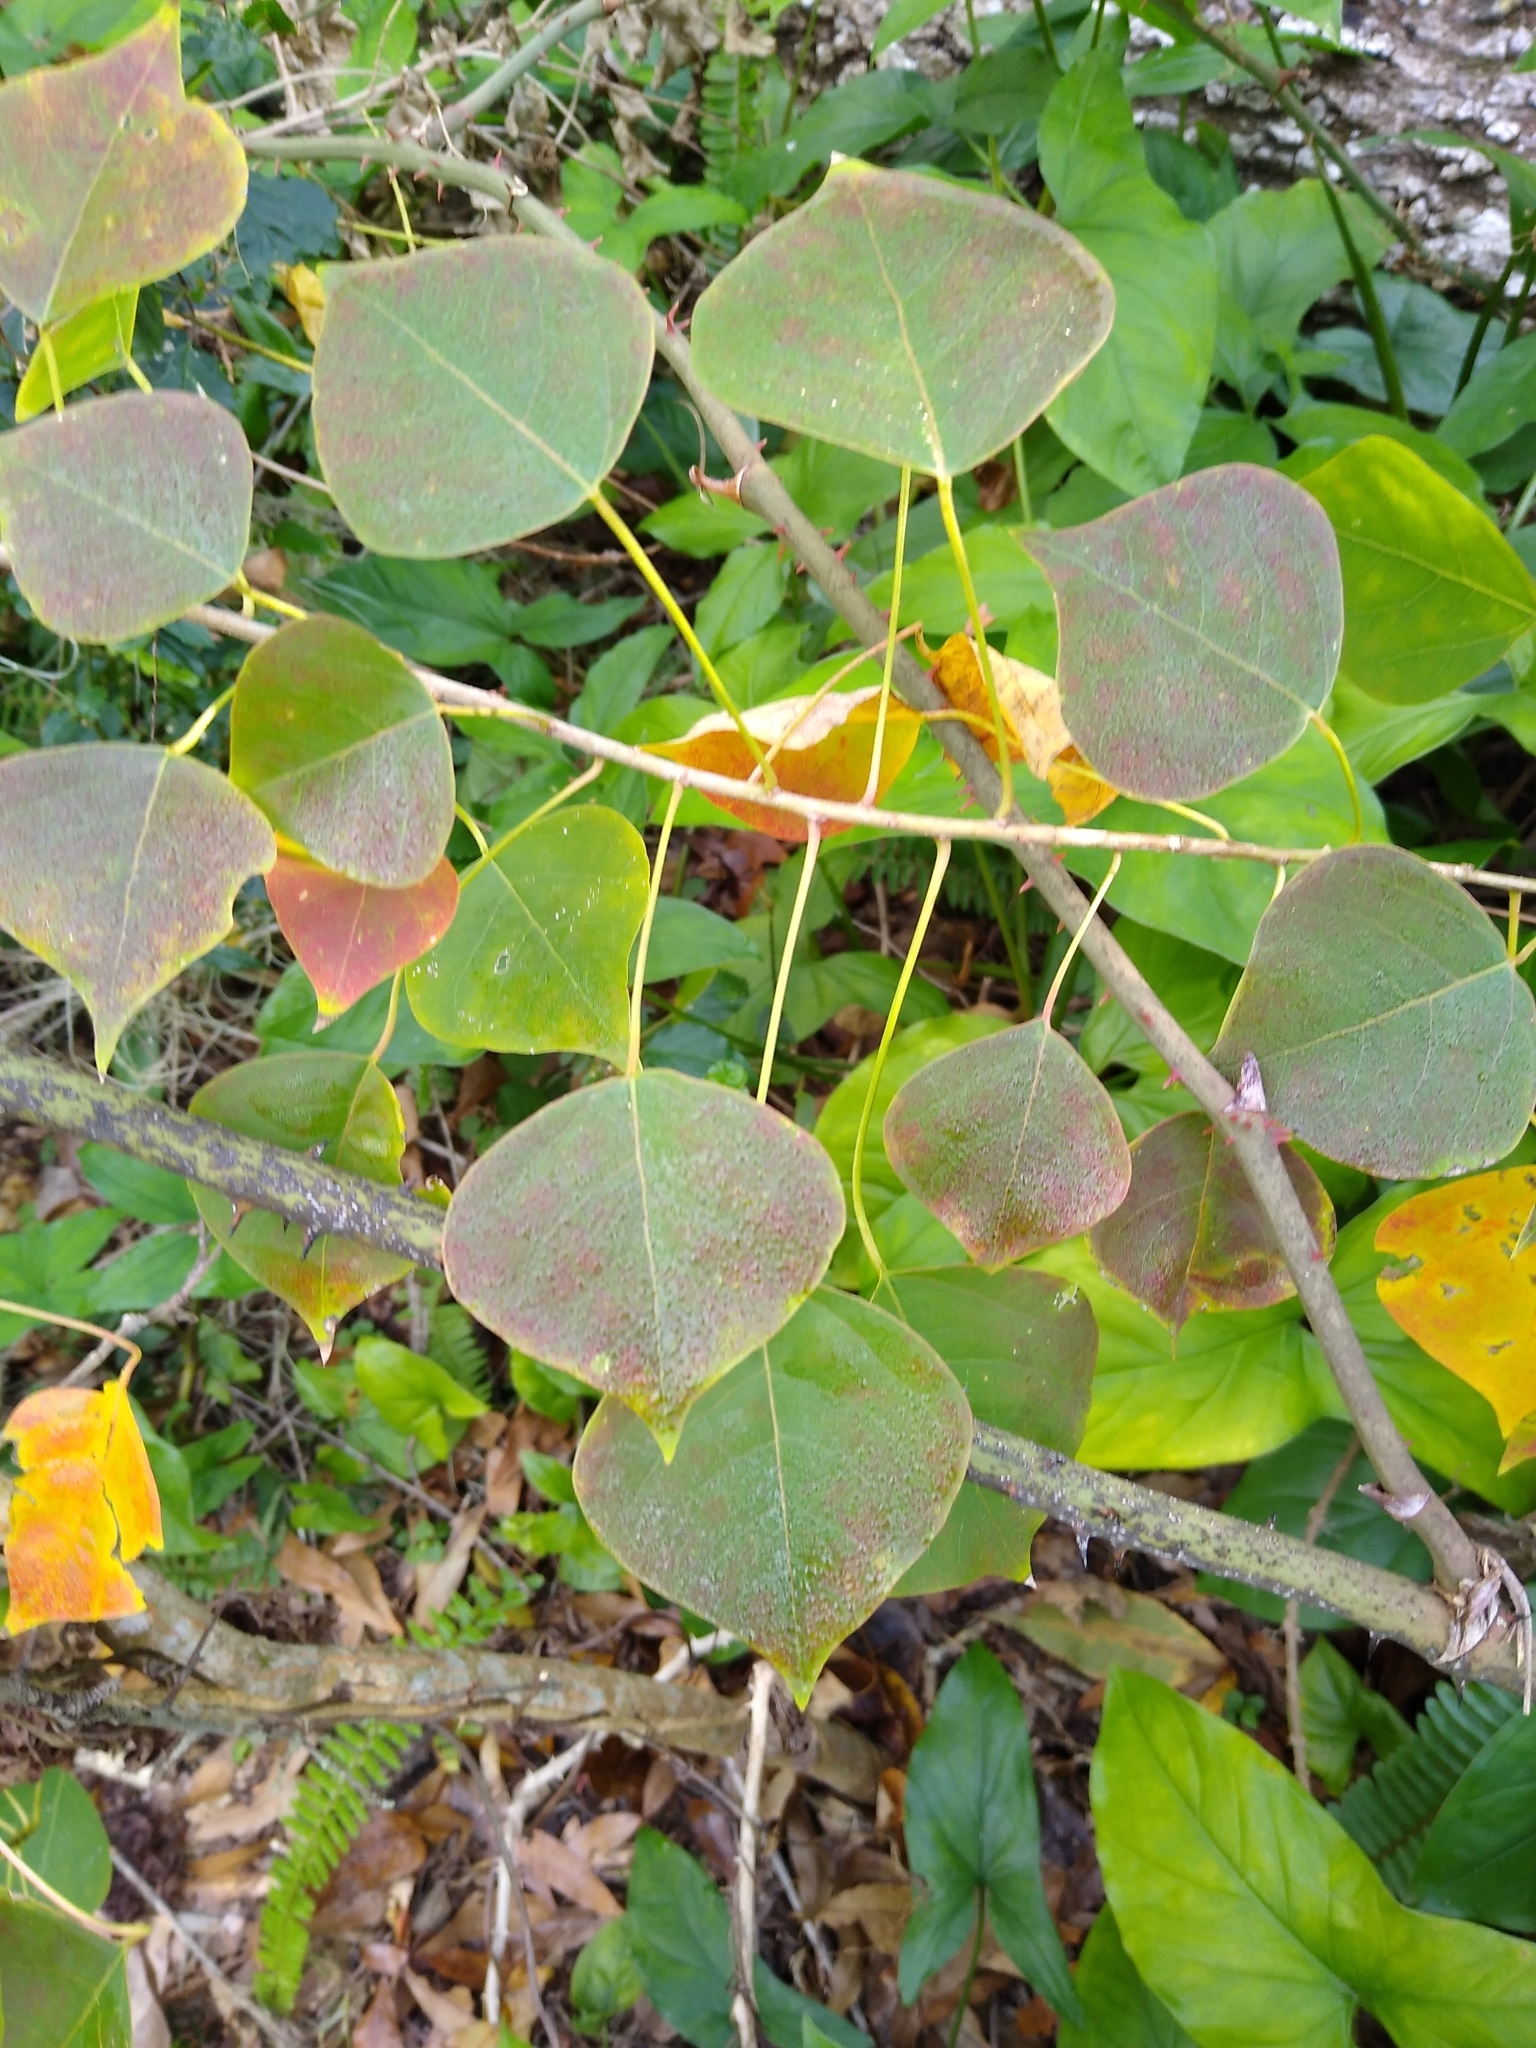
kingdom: Plantae
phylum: Tracheophyta
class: Magnoliopsida
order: Malpighiales
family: Euphorbiaceae
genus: Triadica
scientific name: Triadica sebifera
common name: Chinese tallow
